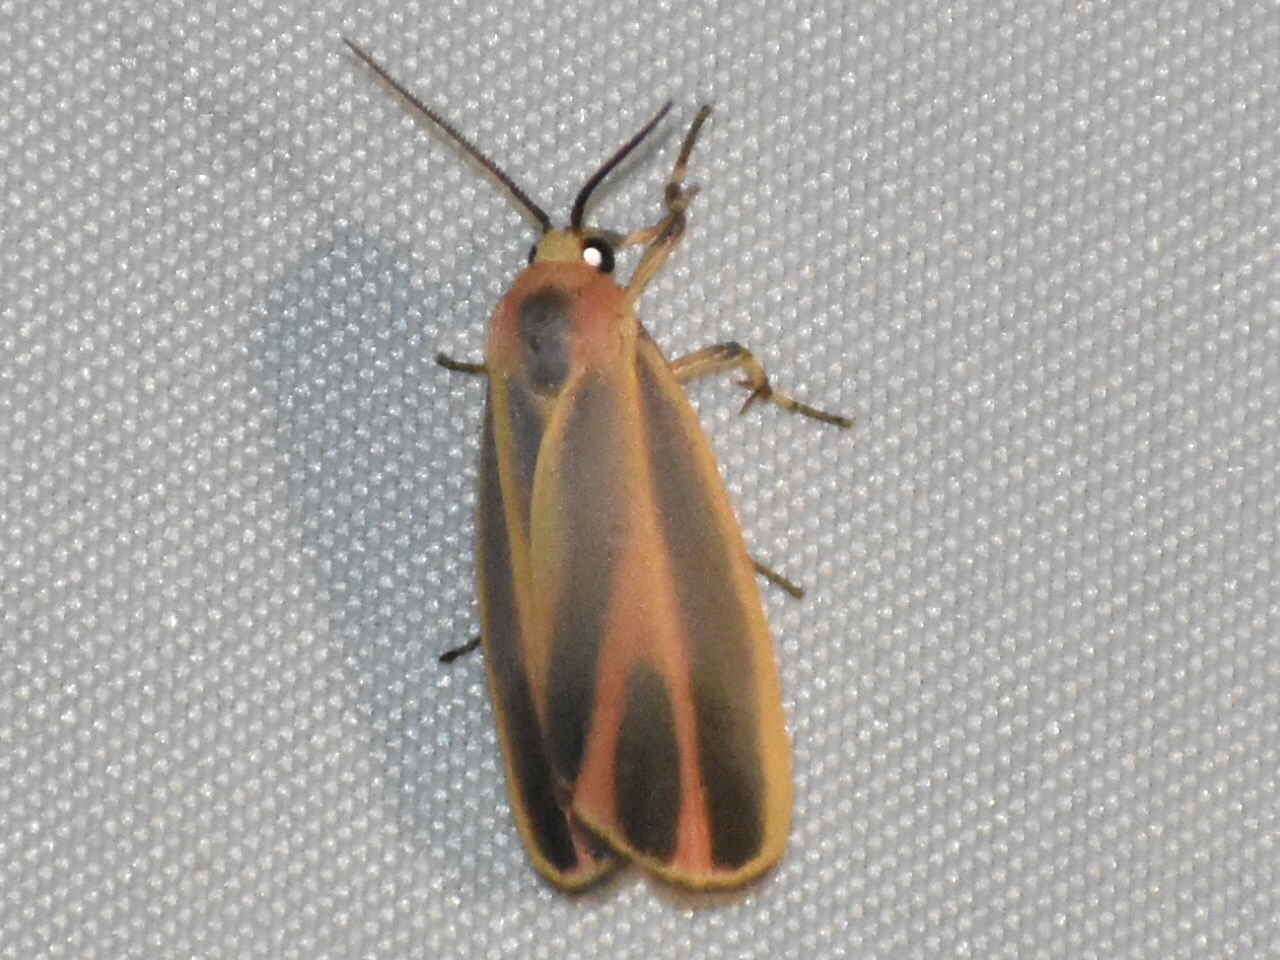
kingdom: Animalia
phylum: Arthropoda
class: Insecta
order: Lepidoptera
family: Erebidae
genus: Hypoprepia
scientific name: Hypoprepia fucosa
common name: Painted lichen moth
